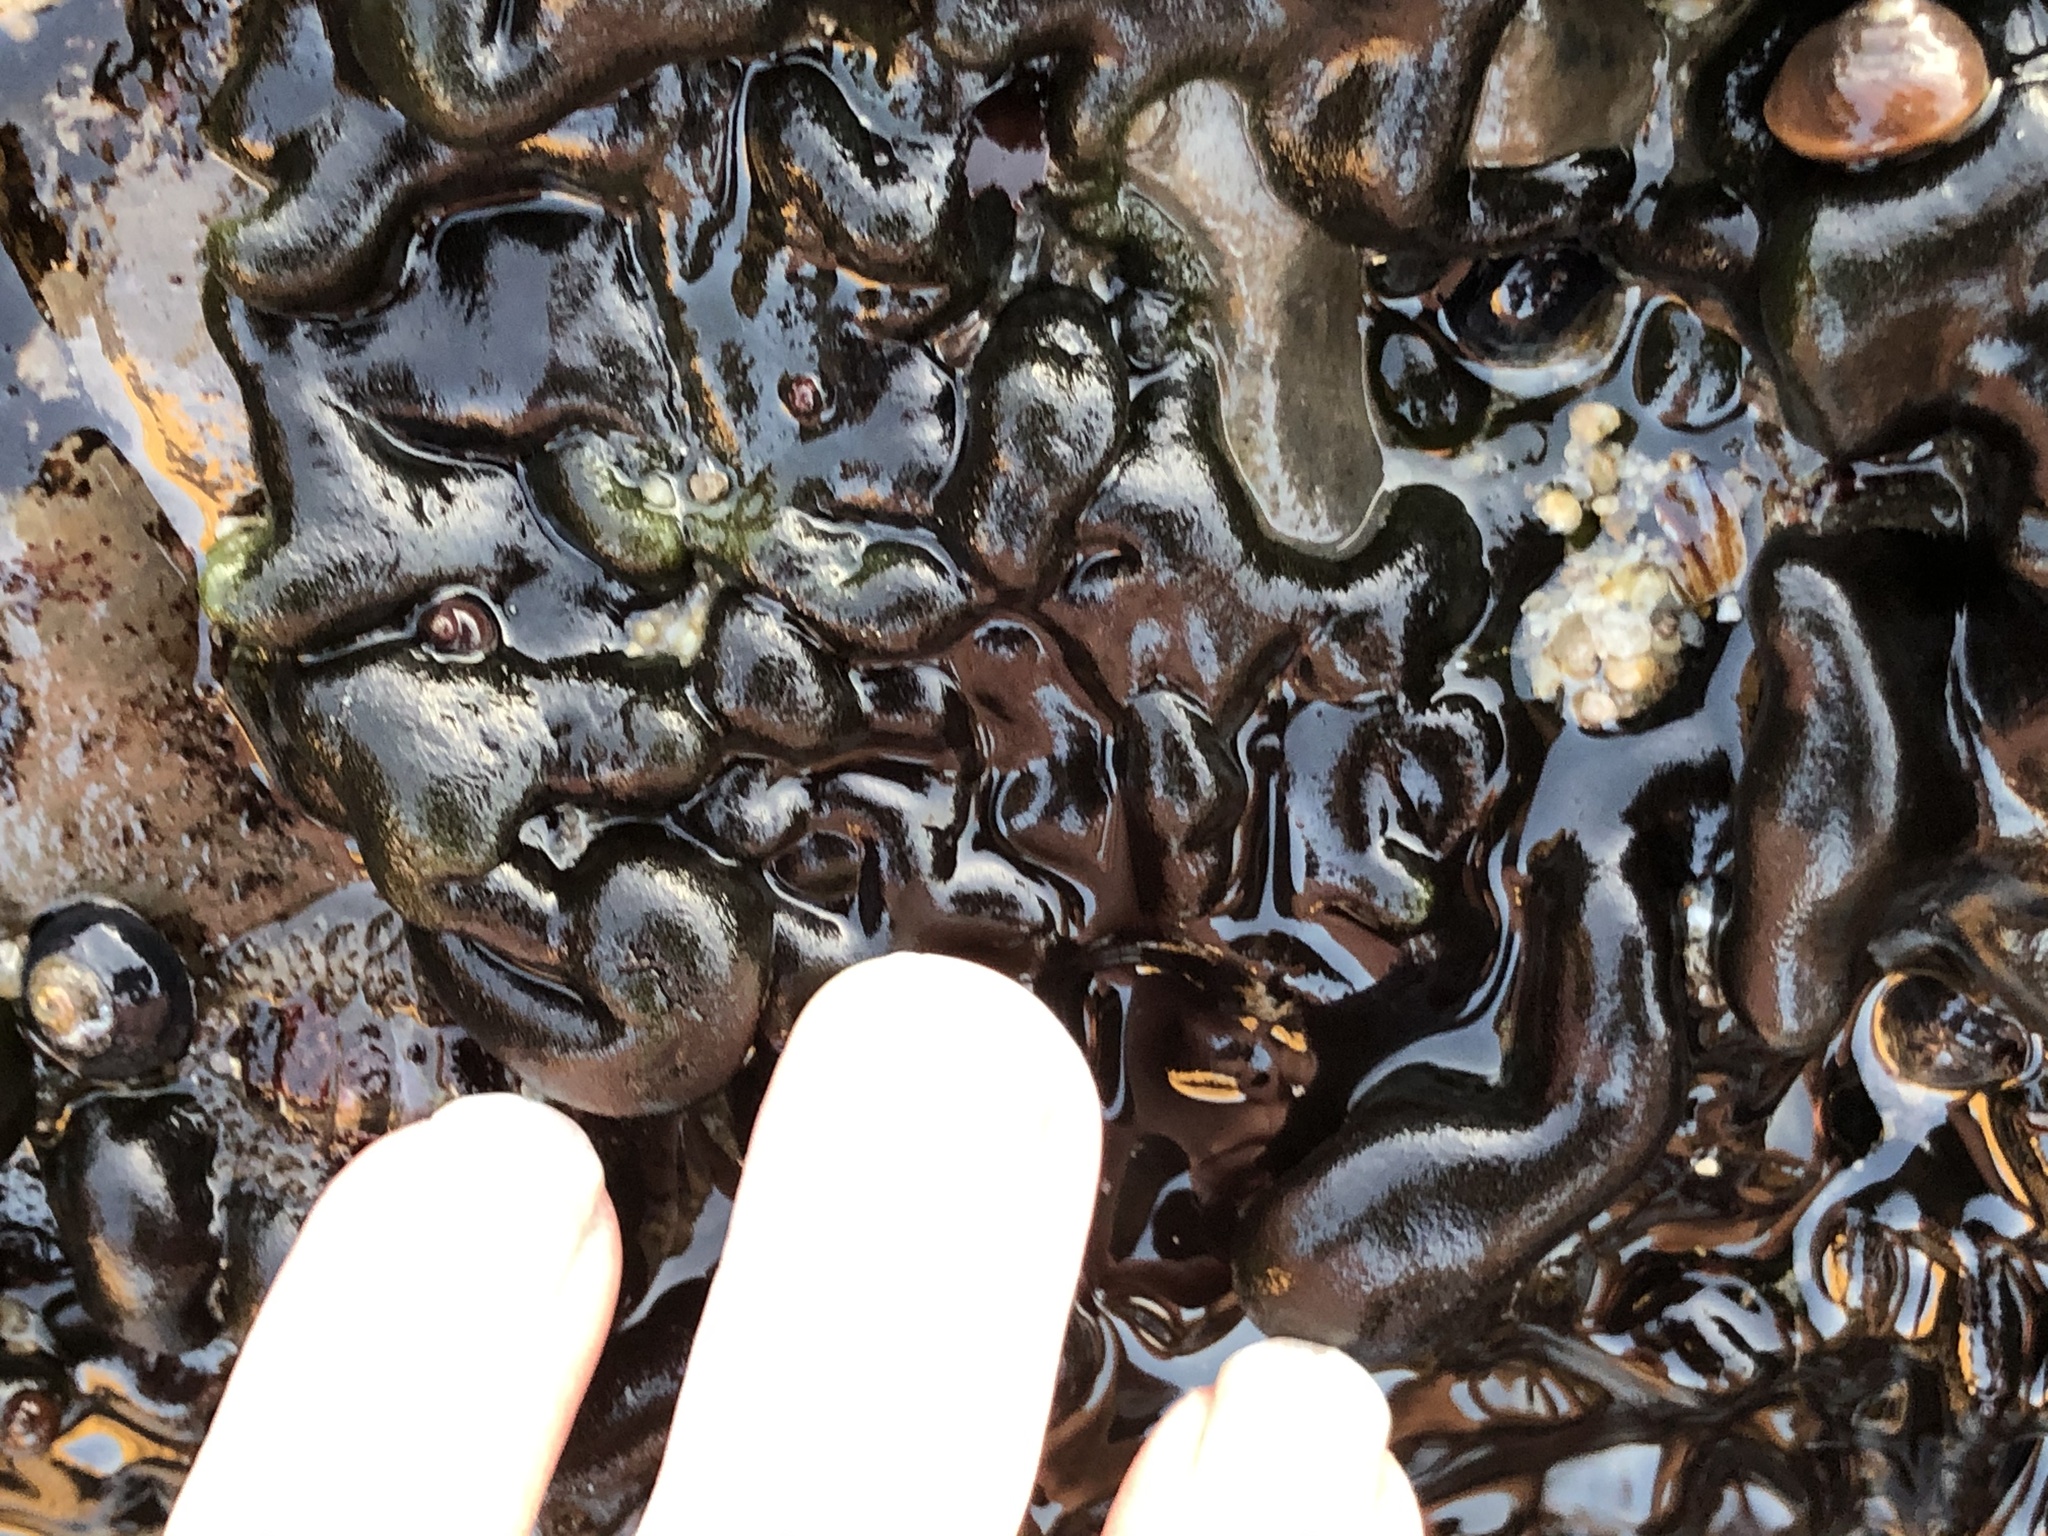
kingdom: Plantae
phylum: Chlorophyta
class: Ulvophyceae
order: Bryopsidales
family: Codiaceae
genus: Codium
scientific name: Codium setchellii
